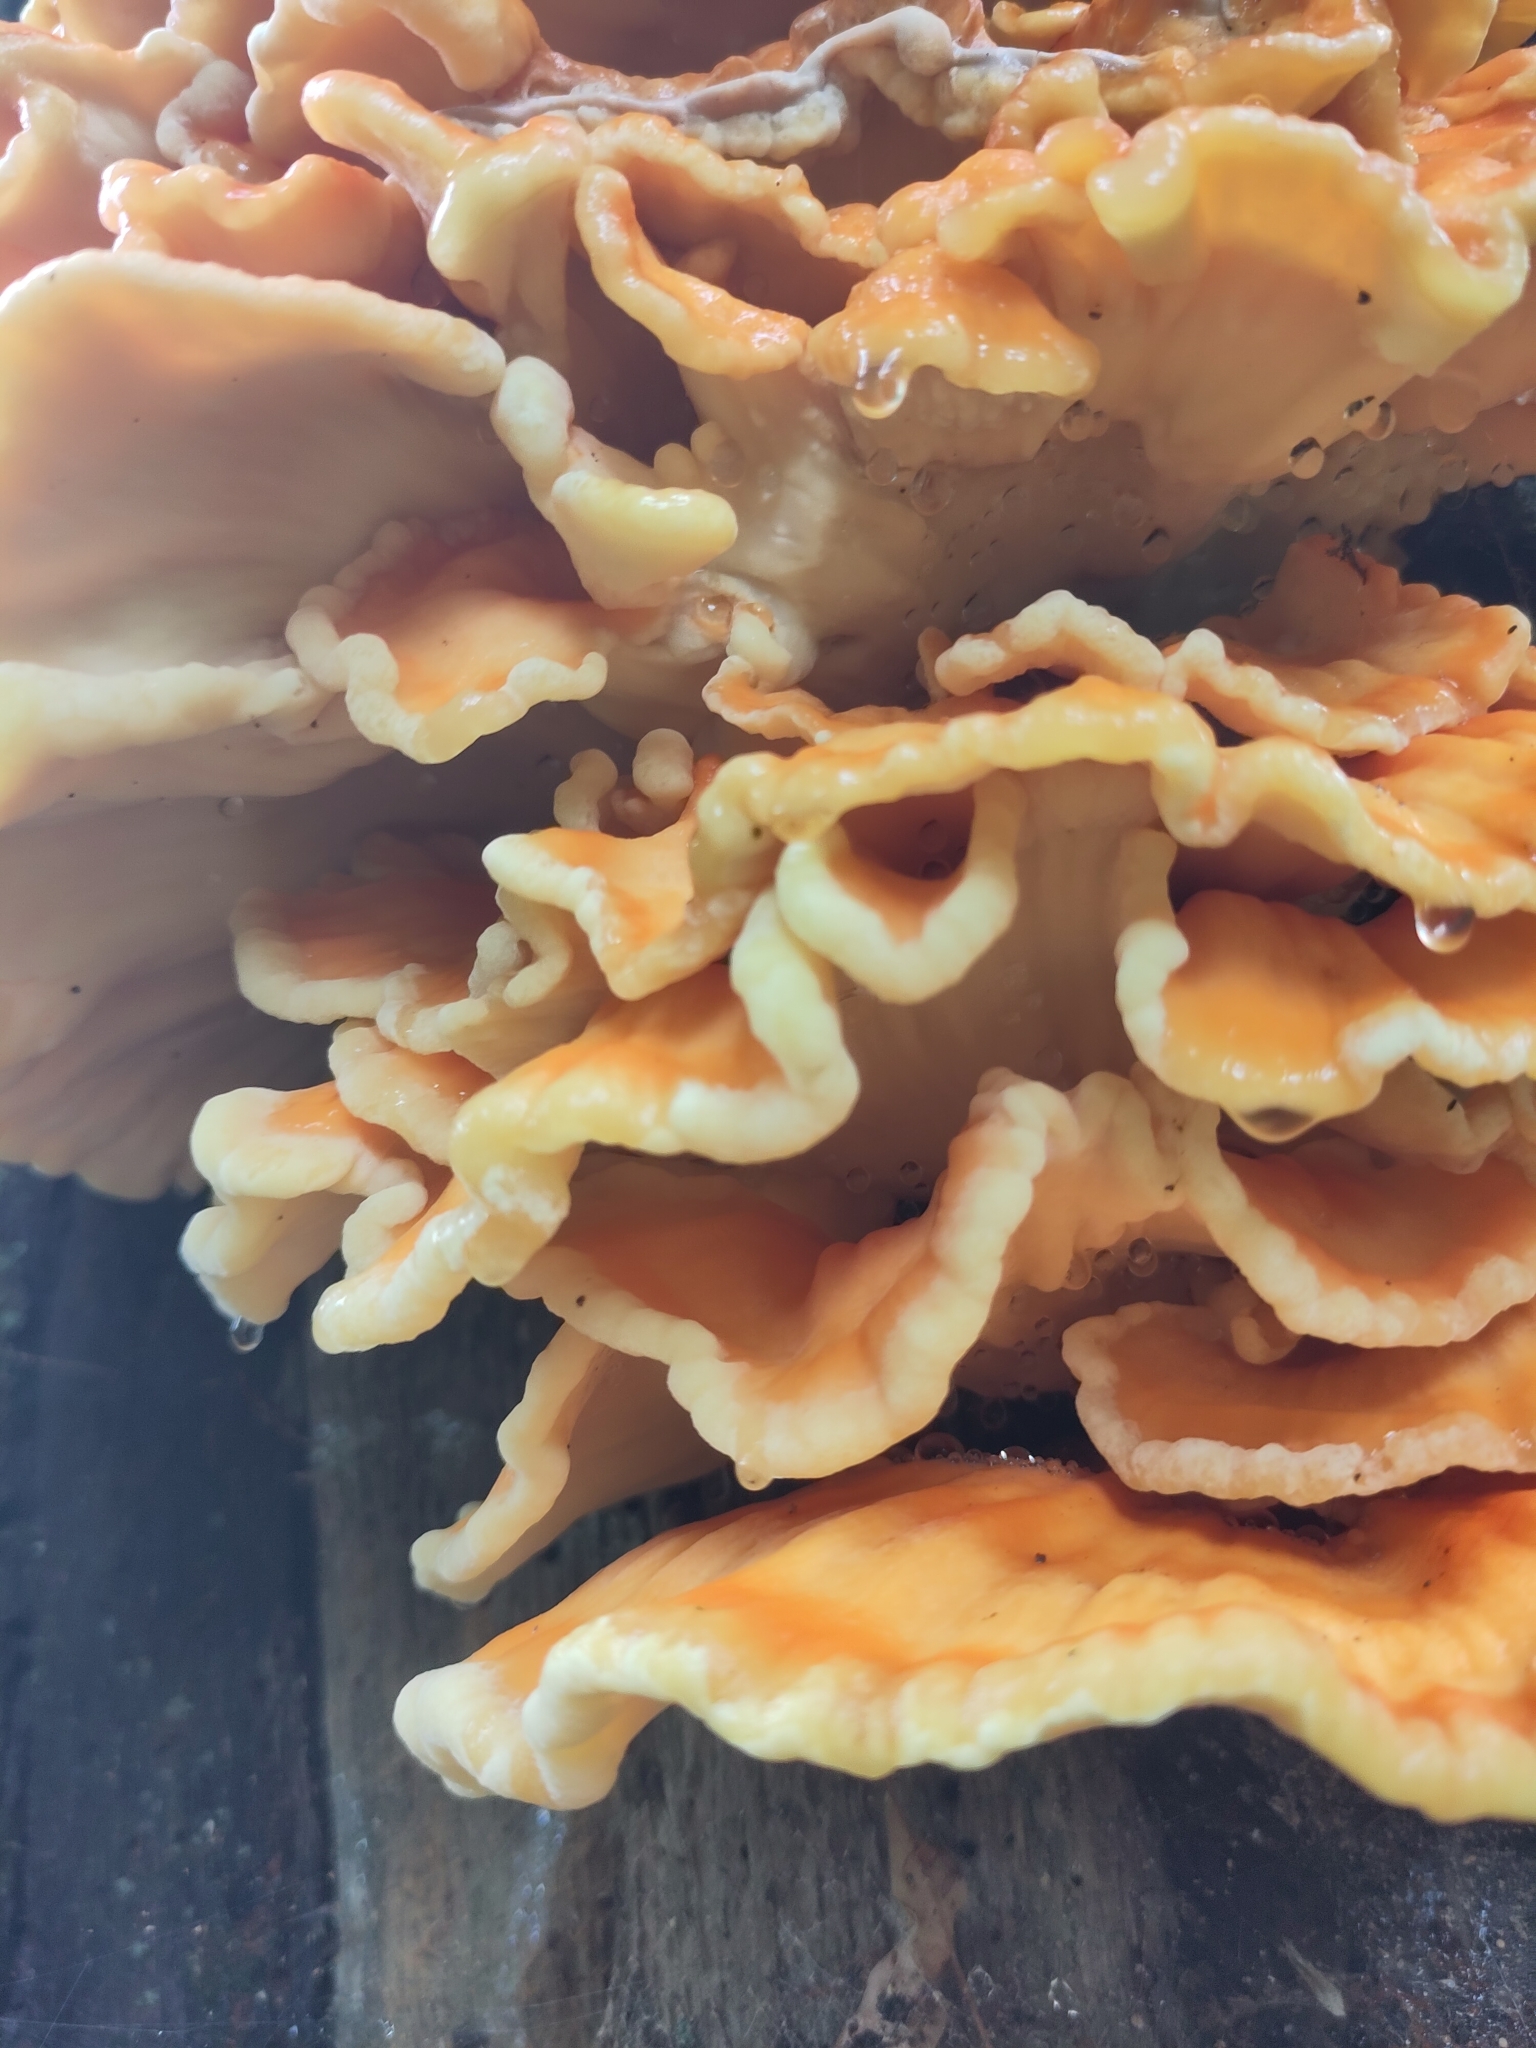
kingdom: Fungi
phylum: Basidiomycota
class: Agaricomycetes
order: Polyporales
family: Laetiporaceae
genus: Laetiporus
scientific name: Laetiporus sulphureus
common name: Chicken of the woods
